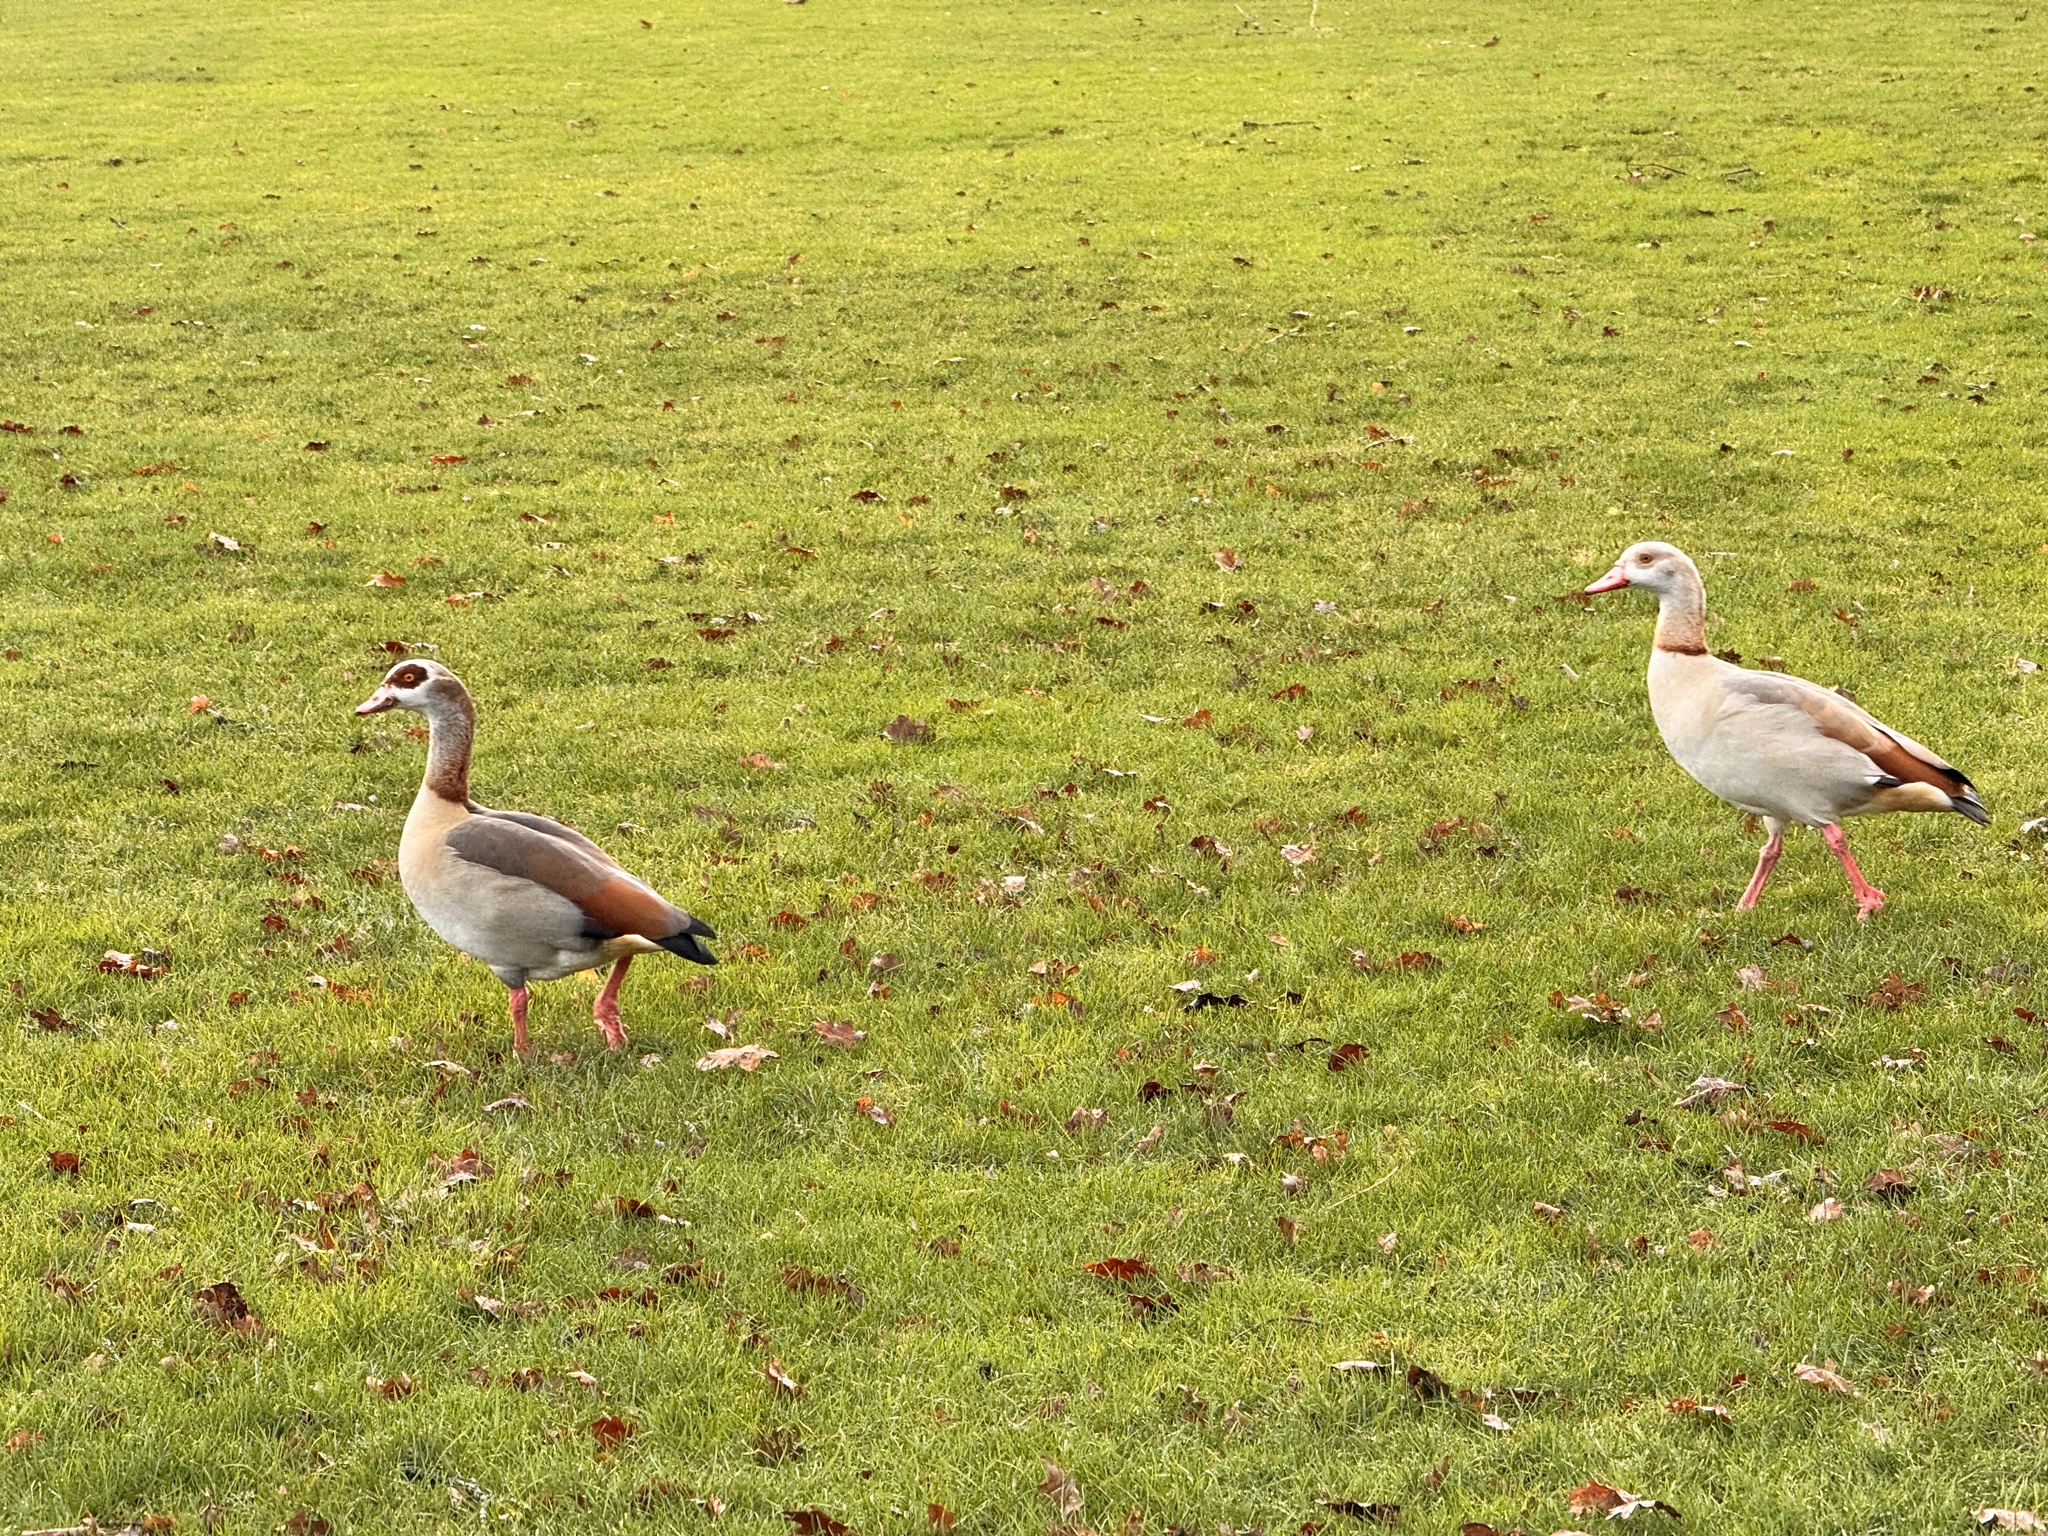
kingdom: Animalia
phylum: Chordata
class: Aves
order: Anseriformes
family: Anatidae
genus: Alopochen
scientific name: Alopochen aegyptiaca
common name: Egyptian goose
